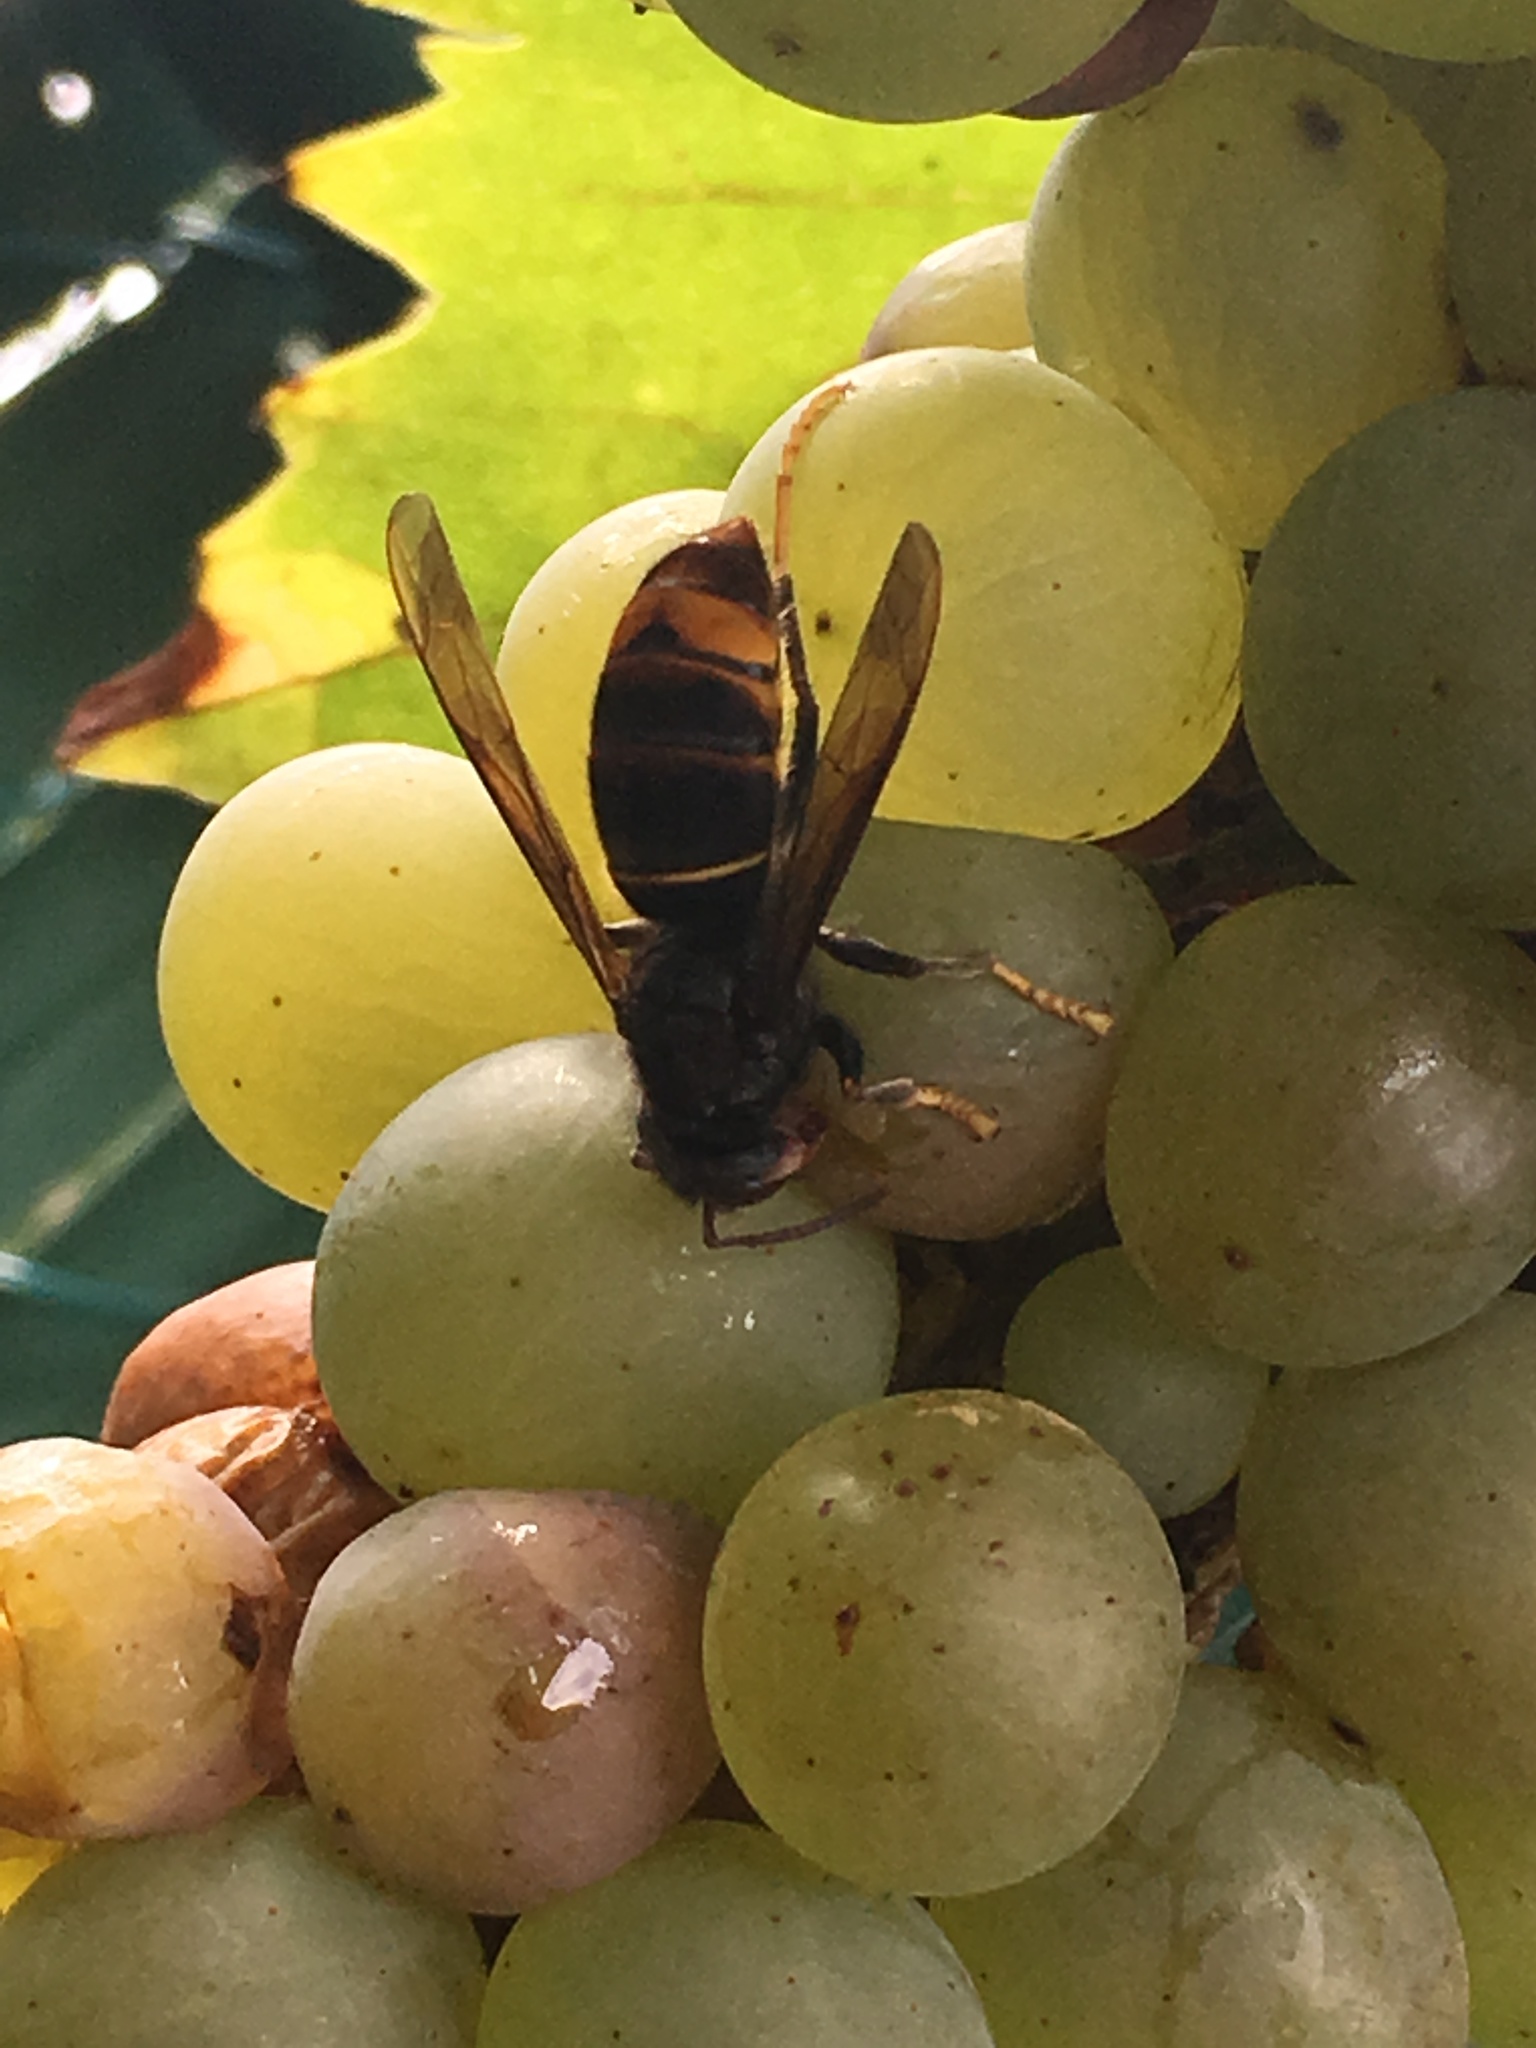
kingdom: Animalia
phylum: Arthropoda
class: Insecta
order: Hymenoptera
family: Vespidae
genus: Vespa
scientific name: Vespa velutina
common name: Asian hornet
